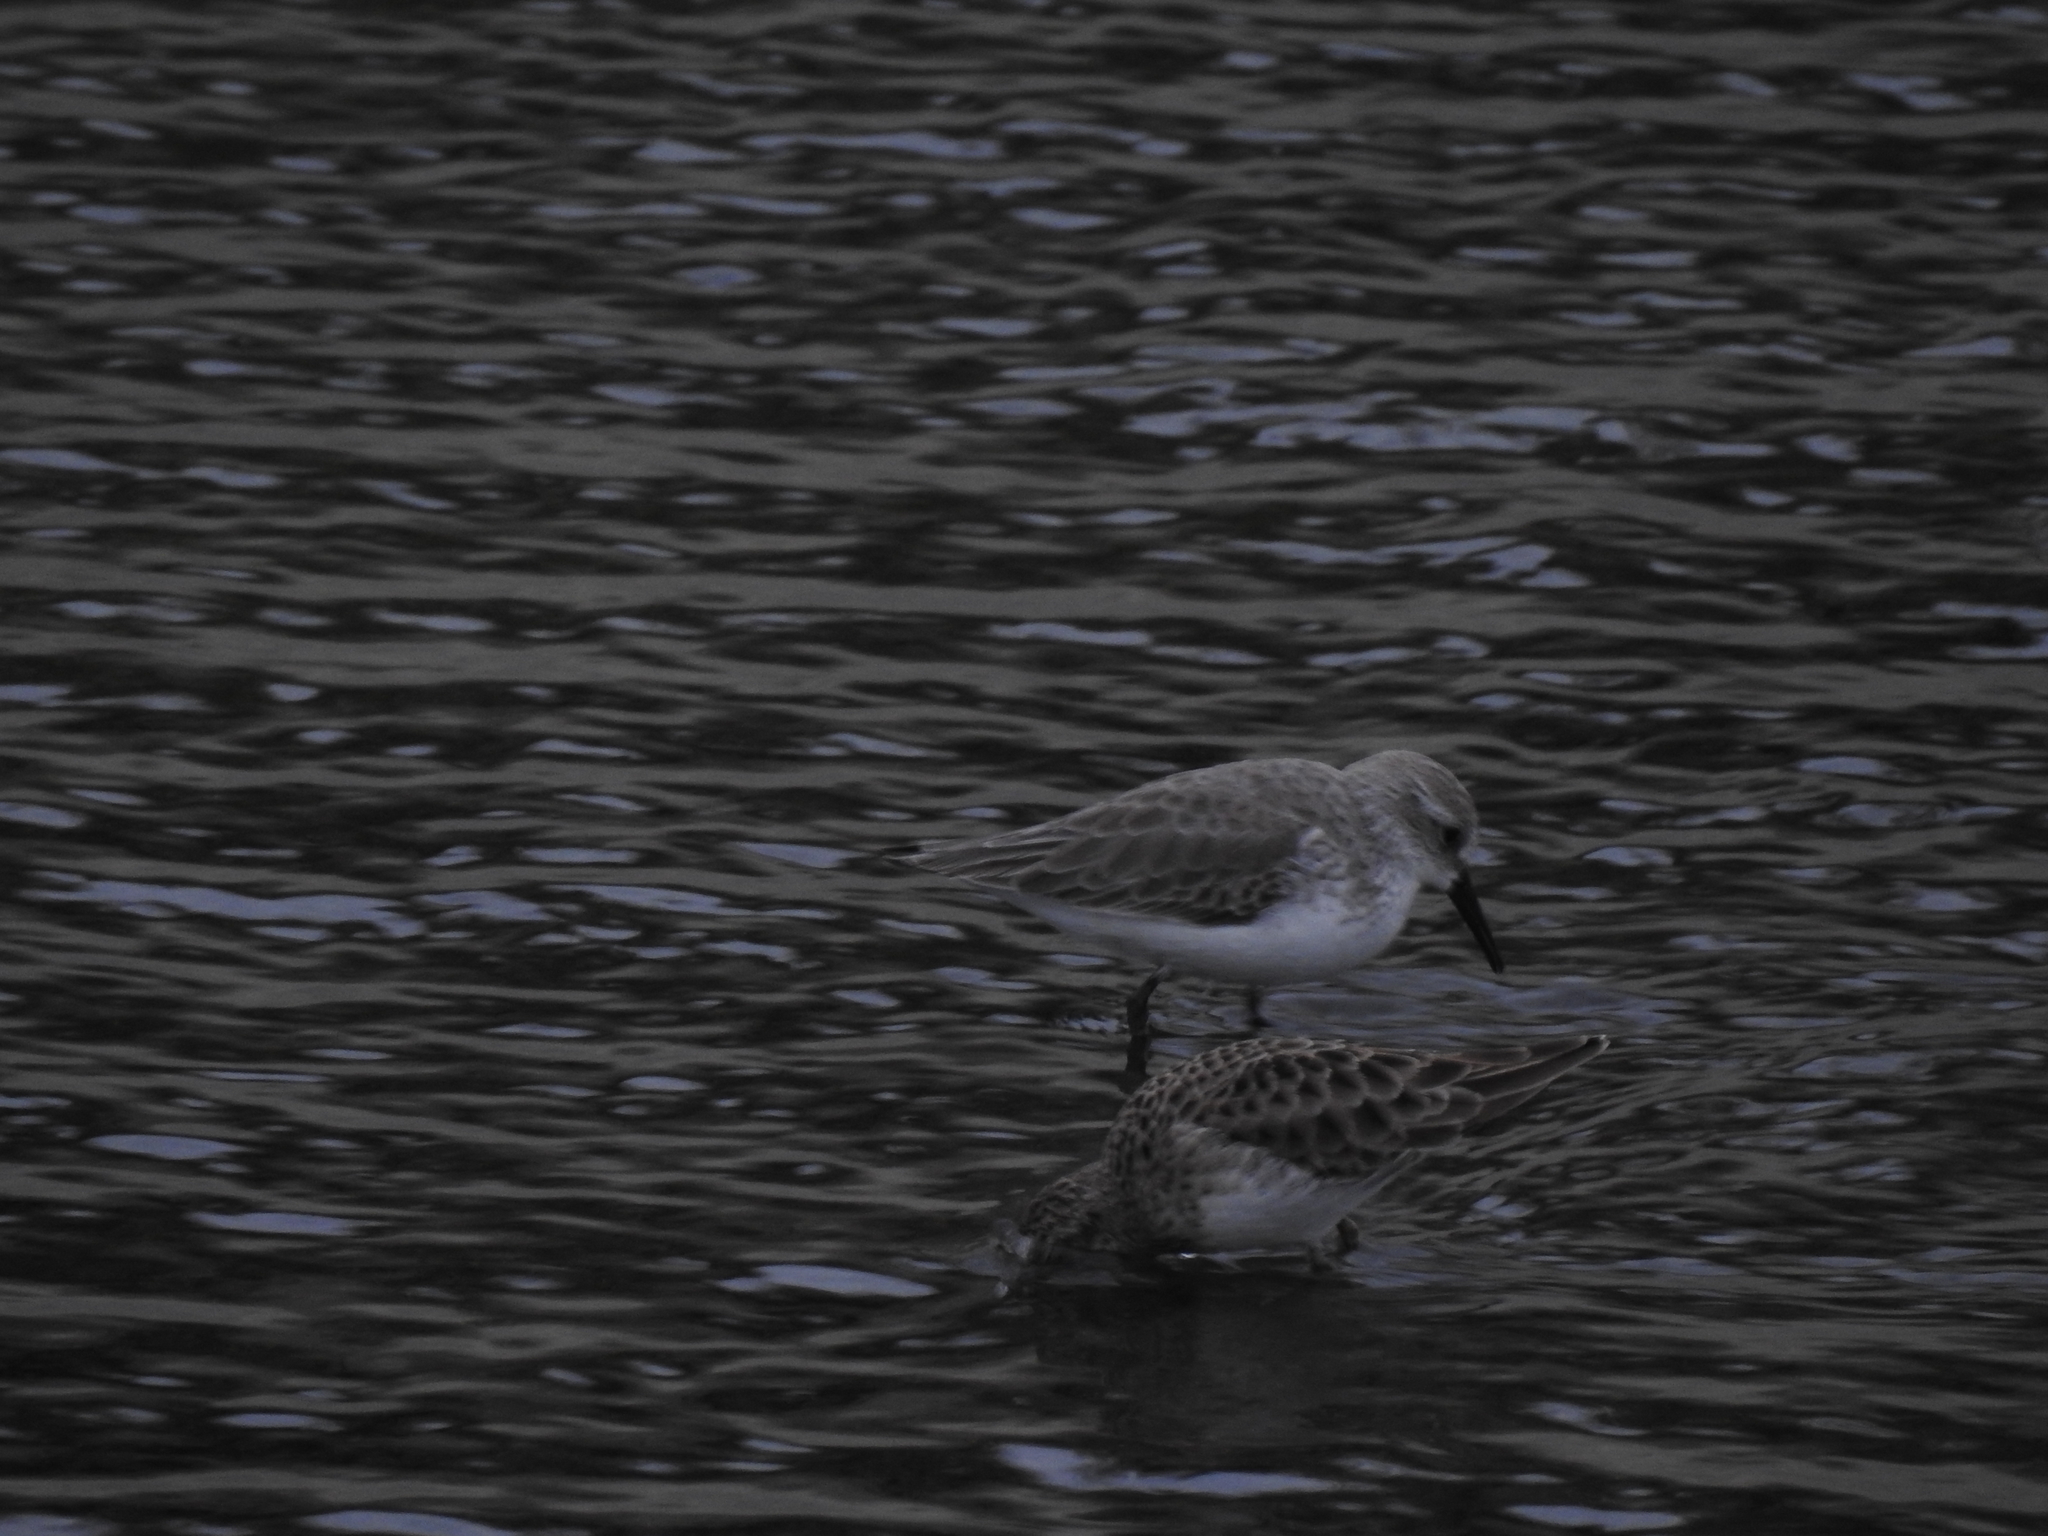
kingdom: Animalia
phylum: Chordata
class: Aves
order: Charadriiformes
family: Scolopacidae
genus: Calidris
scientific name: Calidris mauri
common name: Western sandpiper
